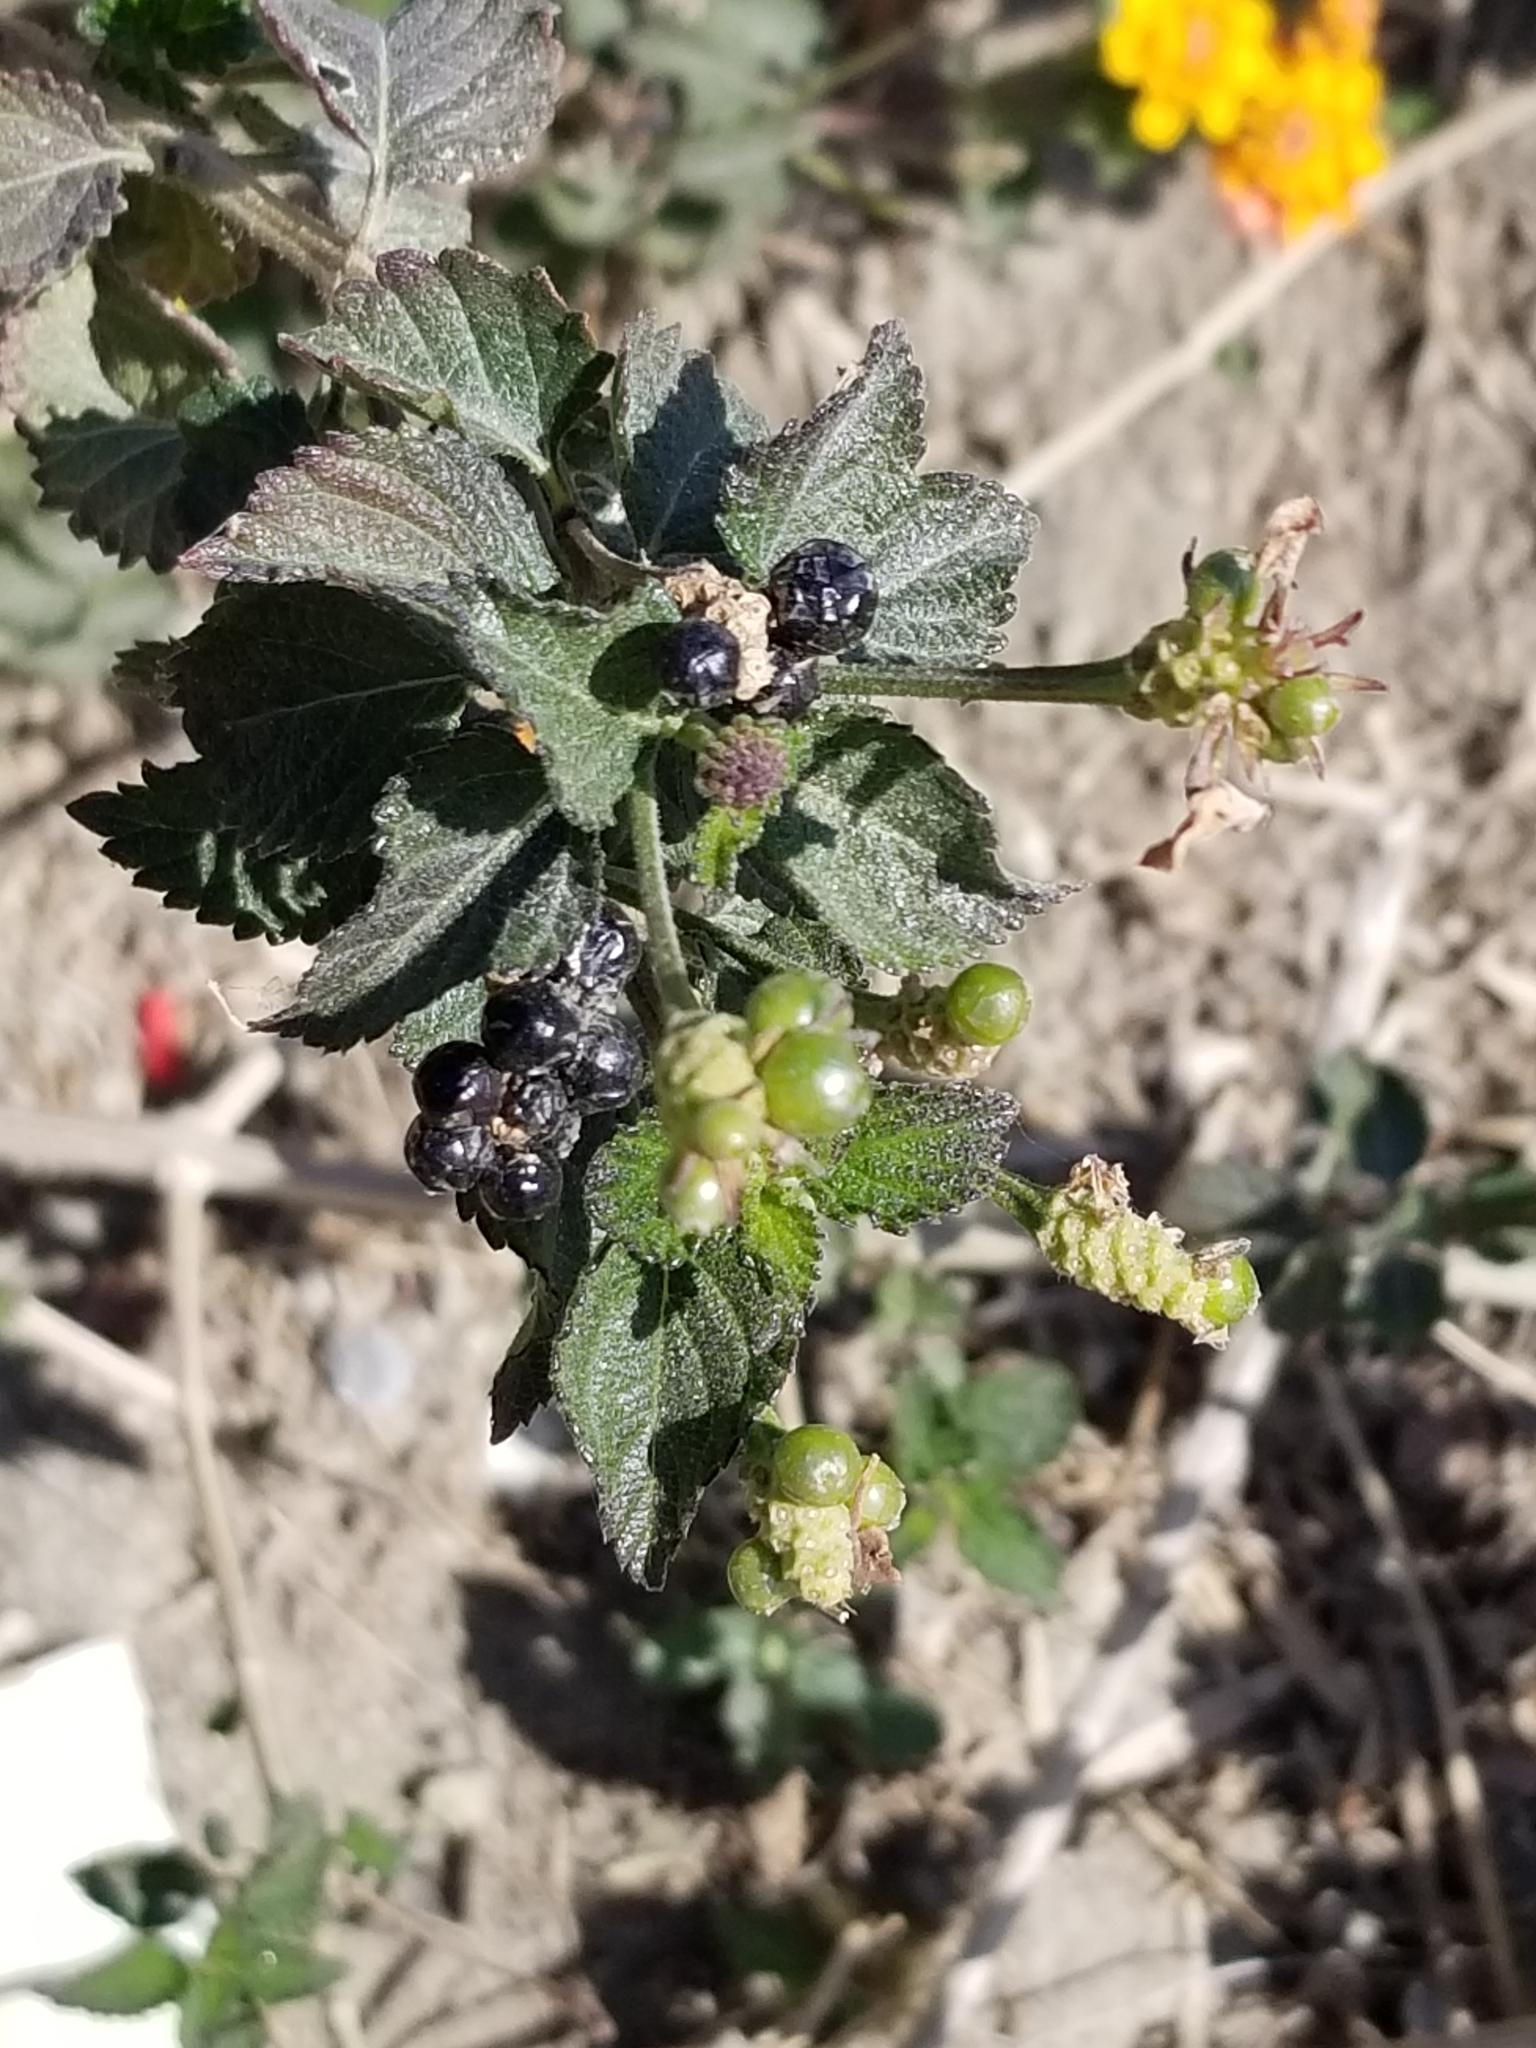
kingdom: Plantae
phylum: Tracheophyta
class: Magnoliopsida
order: Lamiales
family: Verbenaceae
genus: Lantana
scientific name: Lantana camara
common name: Lantana
